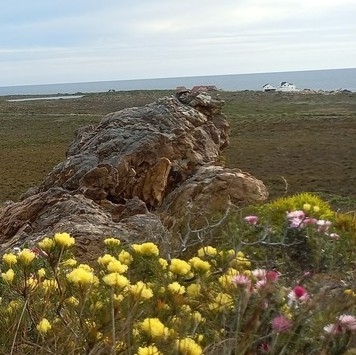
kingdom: Plantae
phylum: Tracheophyta
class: Magnoliopsida
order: Proteales
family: Proteaceae
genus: Aulax
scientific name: Aulax cancellata
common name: Channel-leaf featherbush
